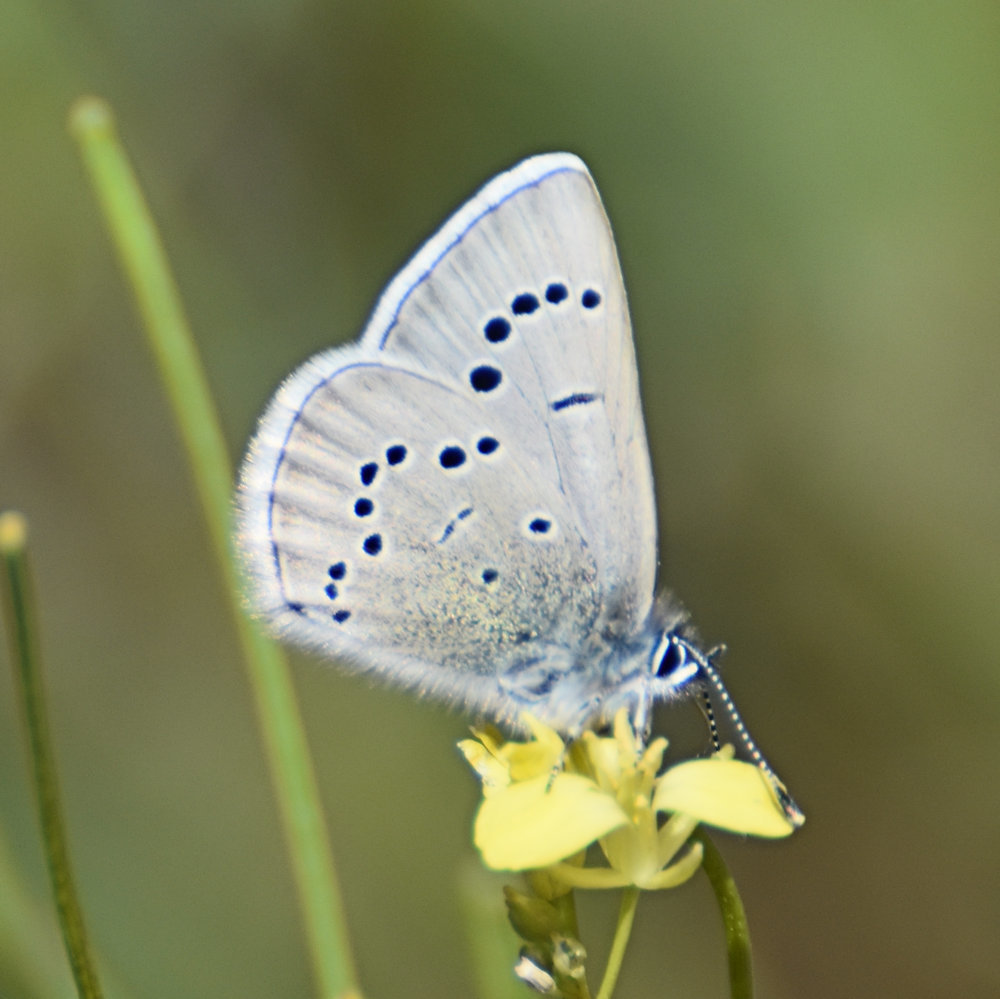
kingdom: Animalia
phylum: Arthropoda
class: Insecta
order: Lepidoptera
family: Lycaenidae
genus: Glaucopsyche
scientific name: Glaucopsyche lygdamus
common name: Silvery blue
